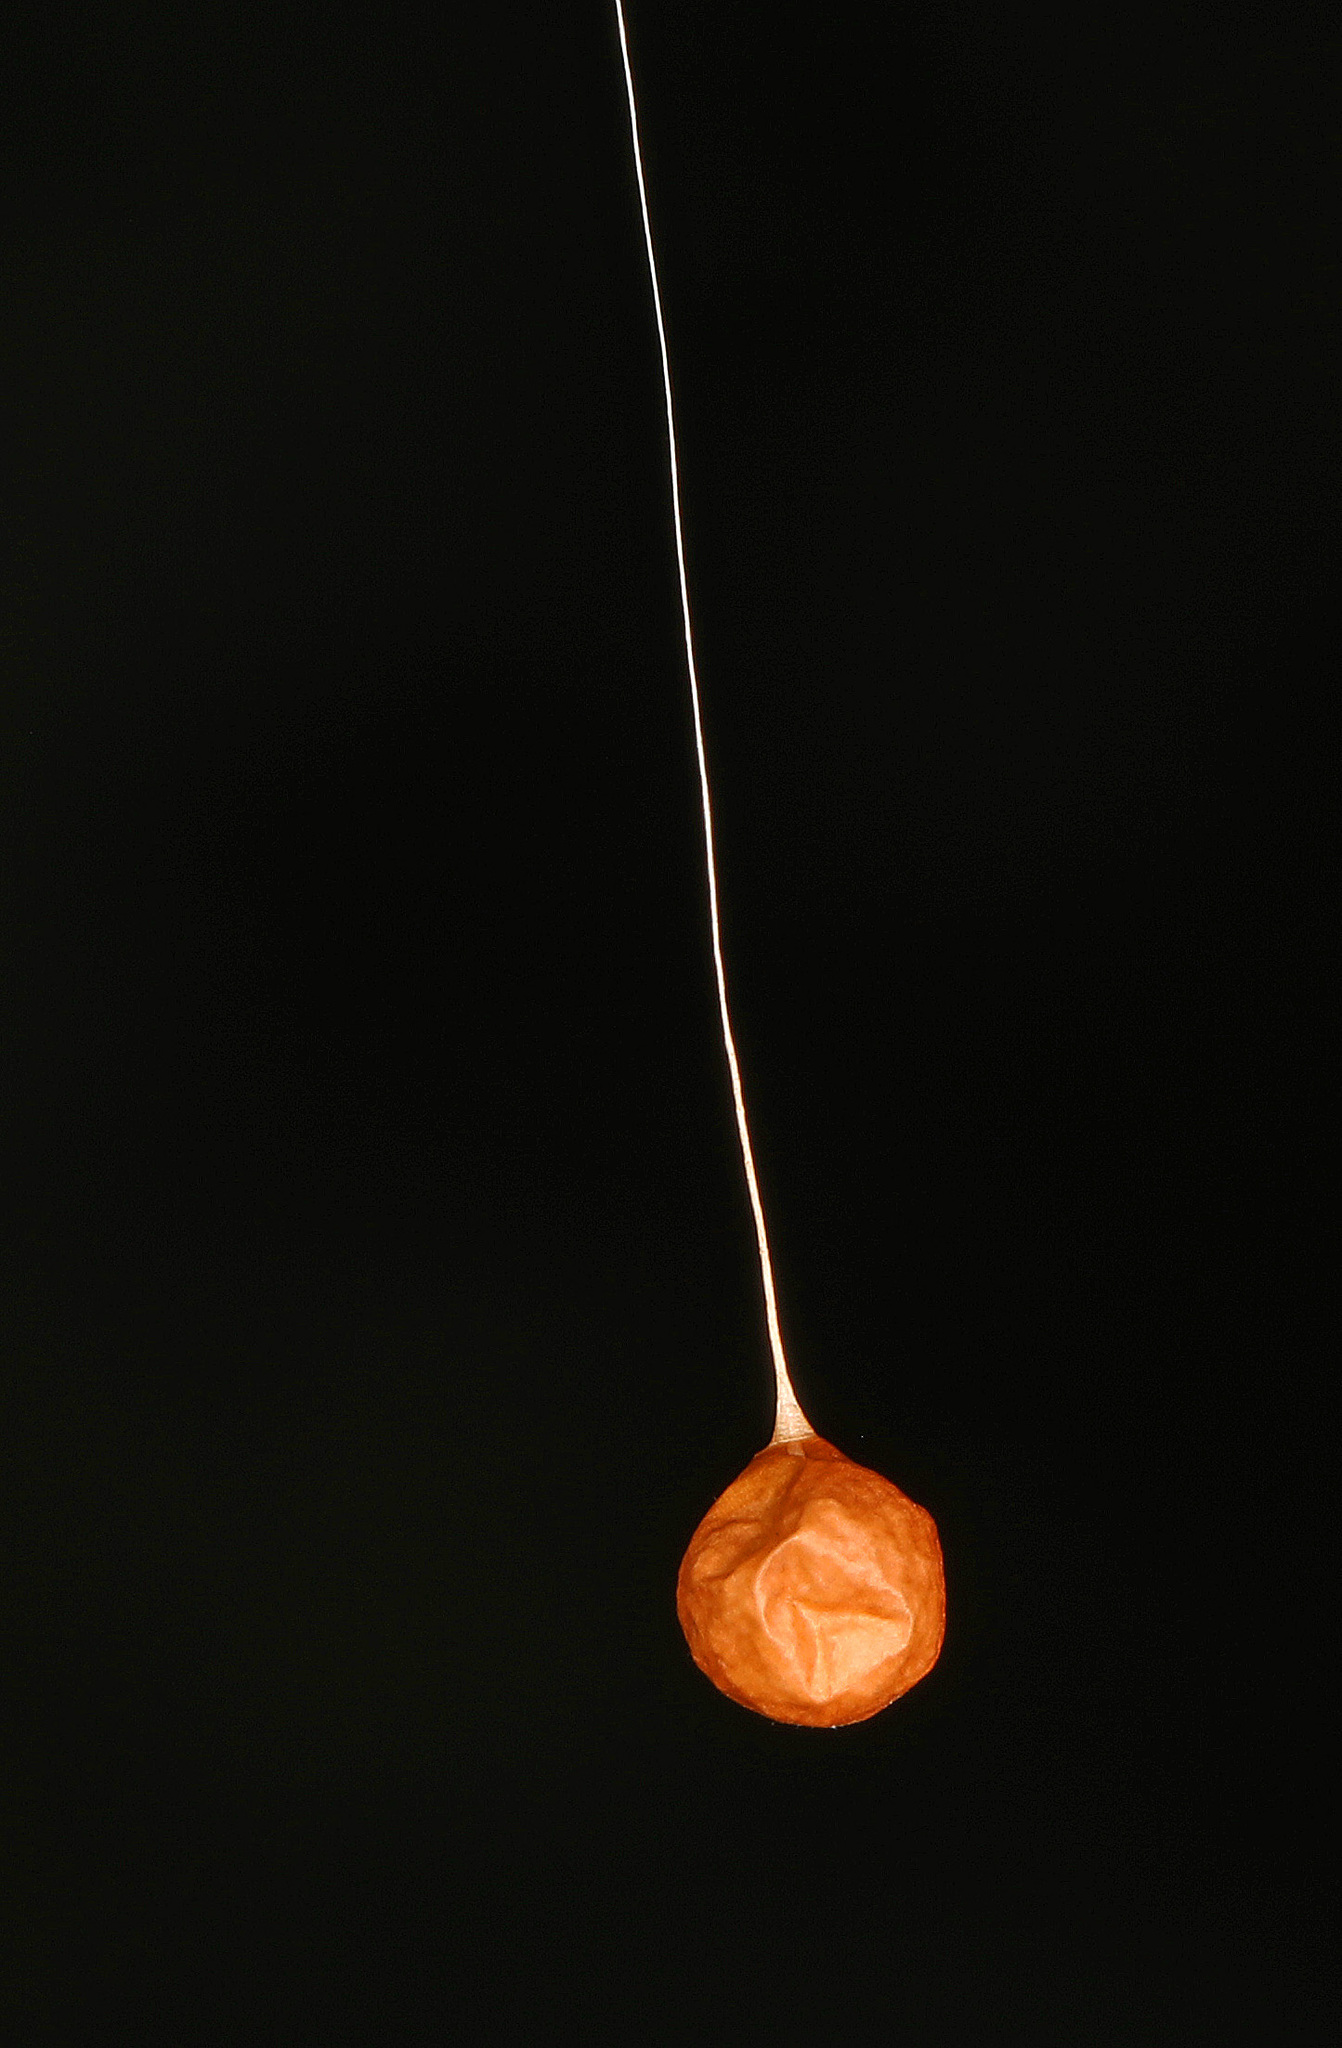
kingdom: Animalia
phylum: Arthropoda
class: Arachnida
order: Araneae
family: Theridiosomatidae
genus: Theridiosoma
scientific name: Theridiosoma gemmosum
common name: Ray spider
